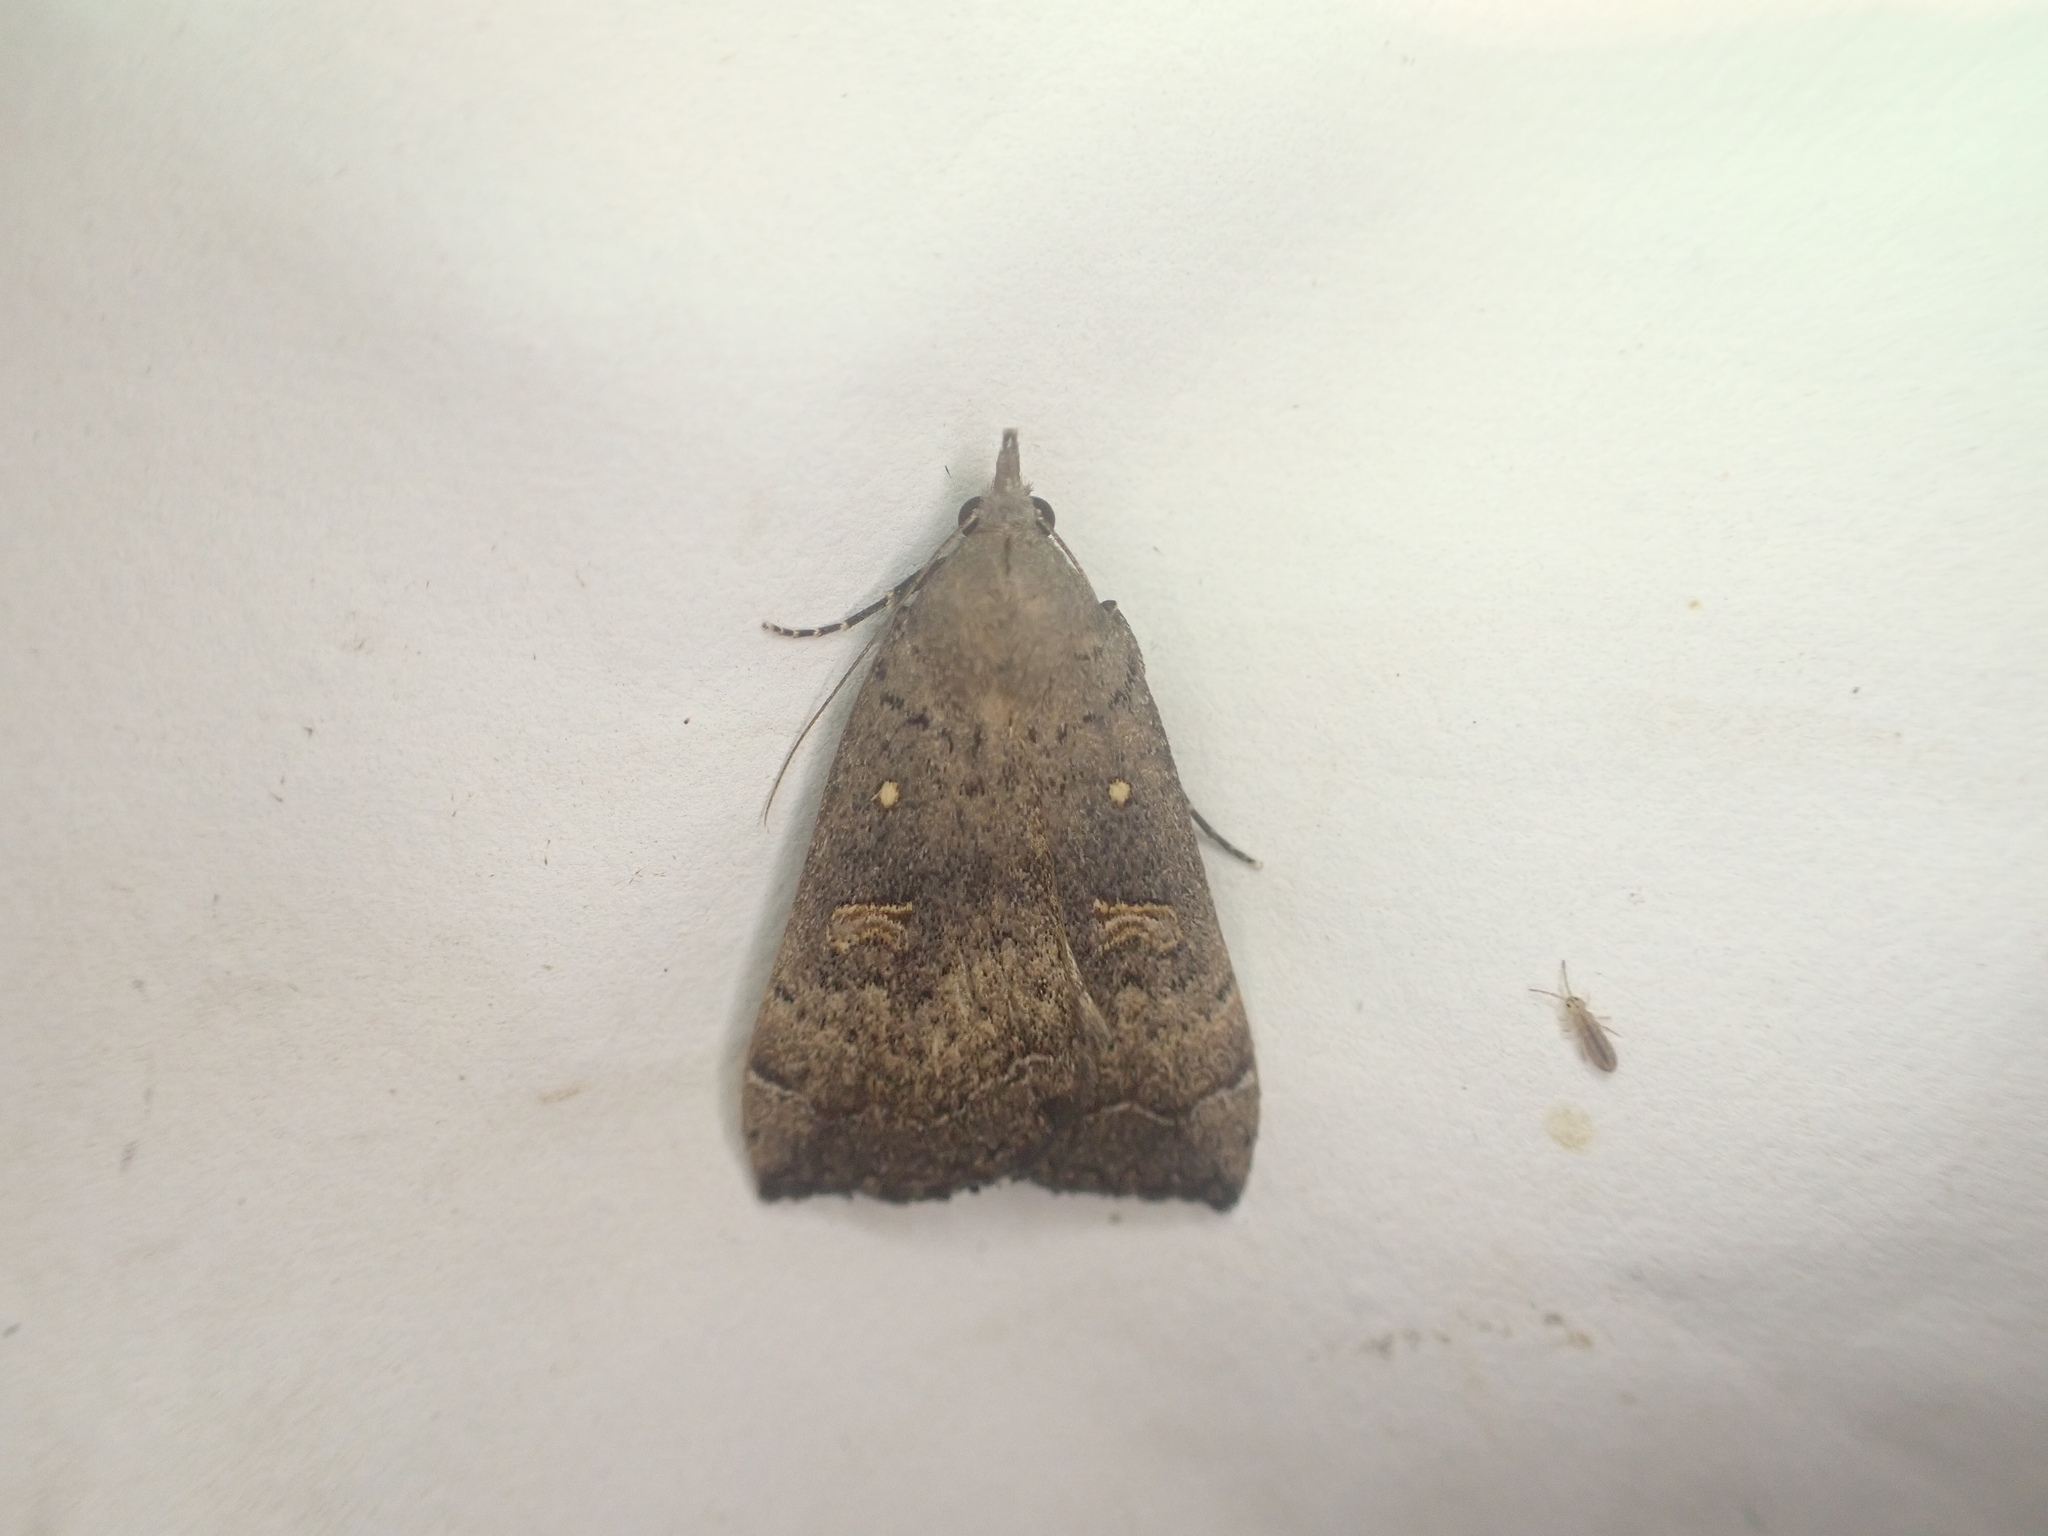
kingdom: Animalia
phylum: Arthropoda
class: Insecta
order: Lepidoptera
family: Erebidae
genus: Rhapsa
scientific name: Rhapsa scotosialis
